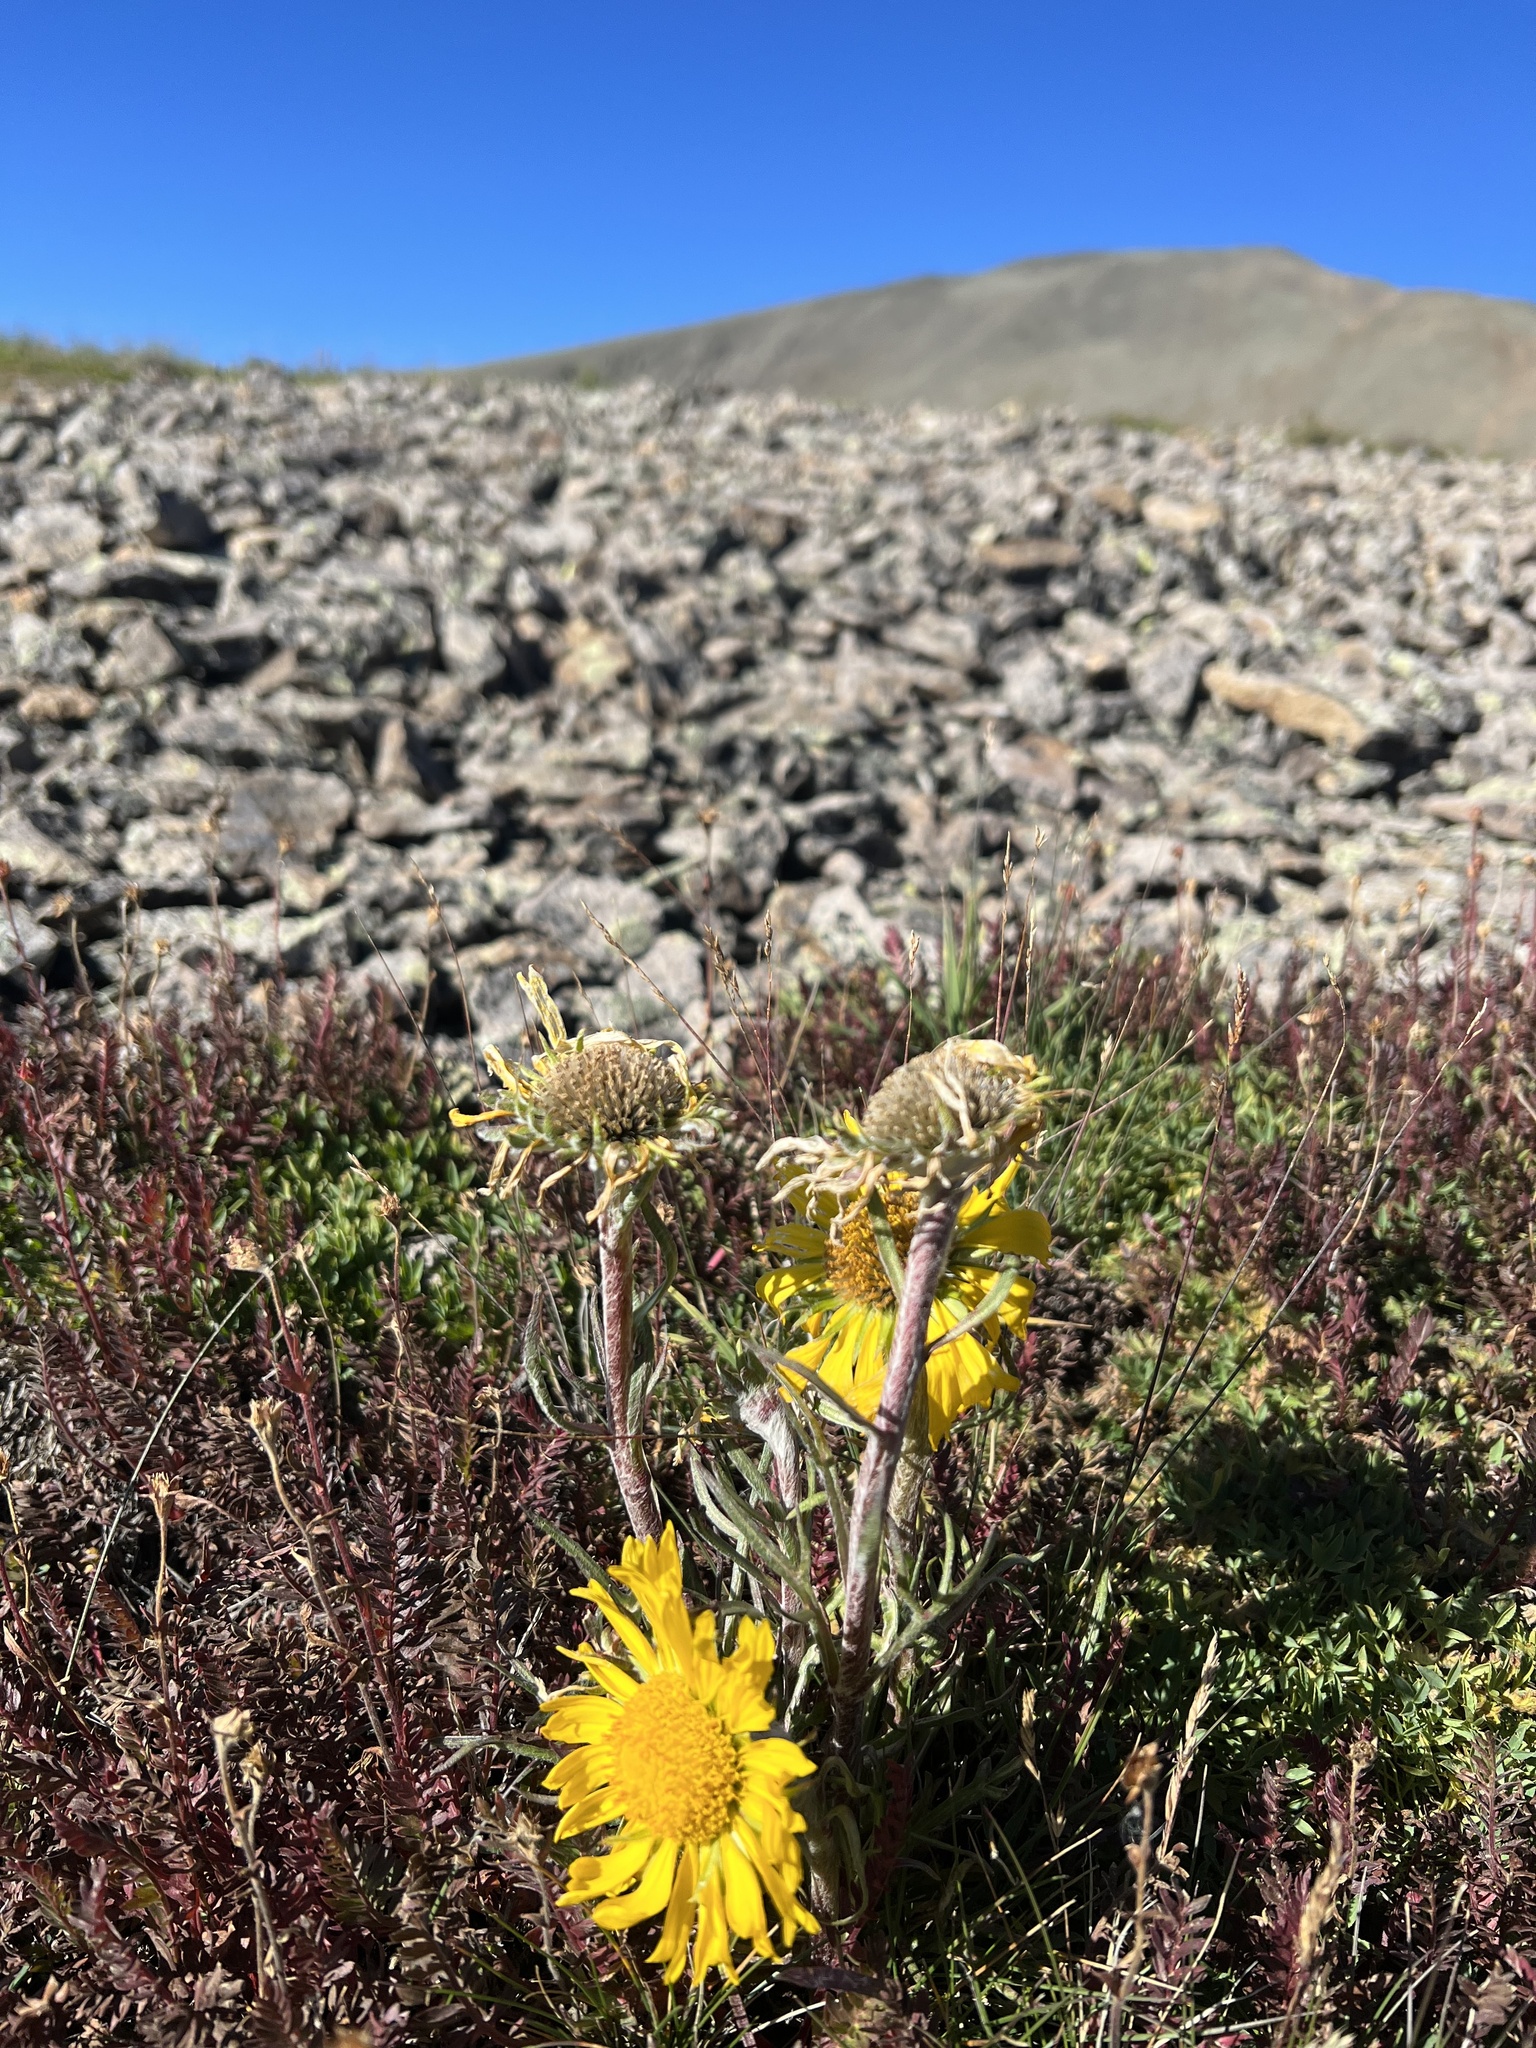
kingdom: Plantae
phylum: Tracheophyta
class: Magnoliopsida
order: Asterales
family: Asteraceae
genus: Hymenoxys
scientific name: Hymenoxys grandiflora
